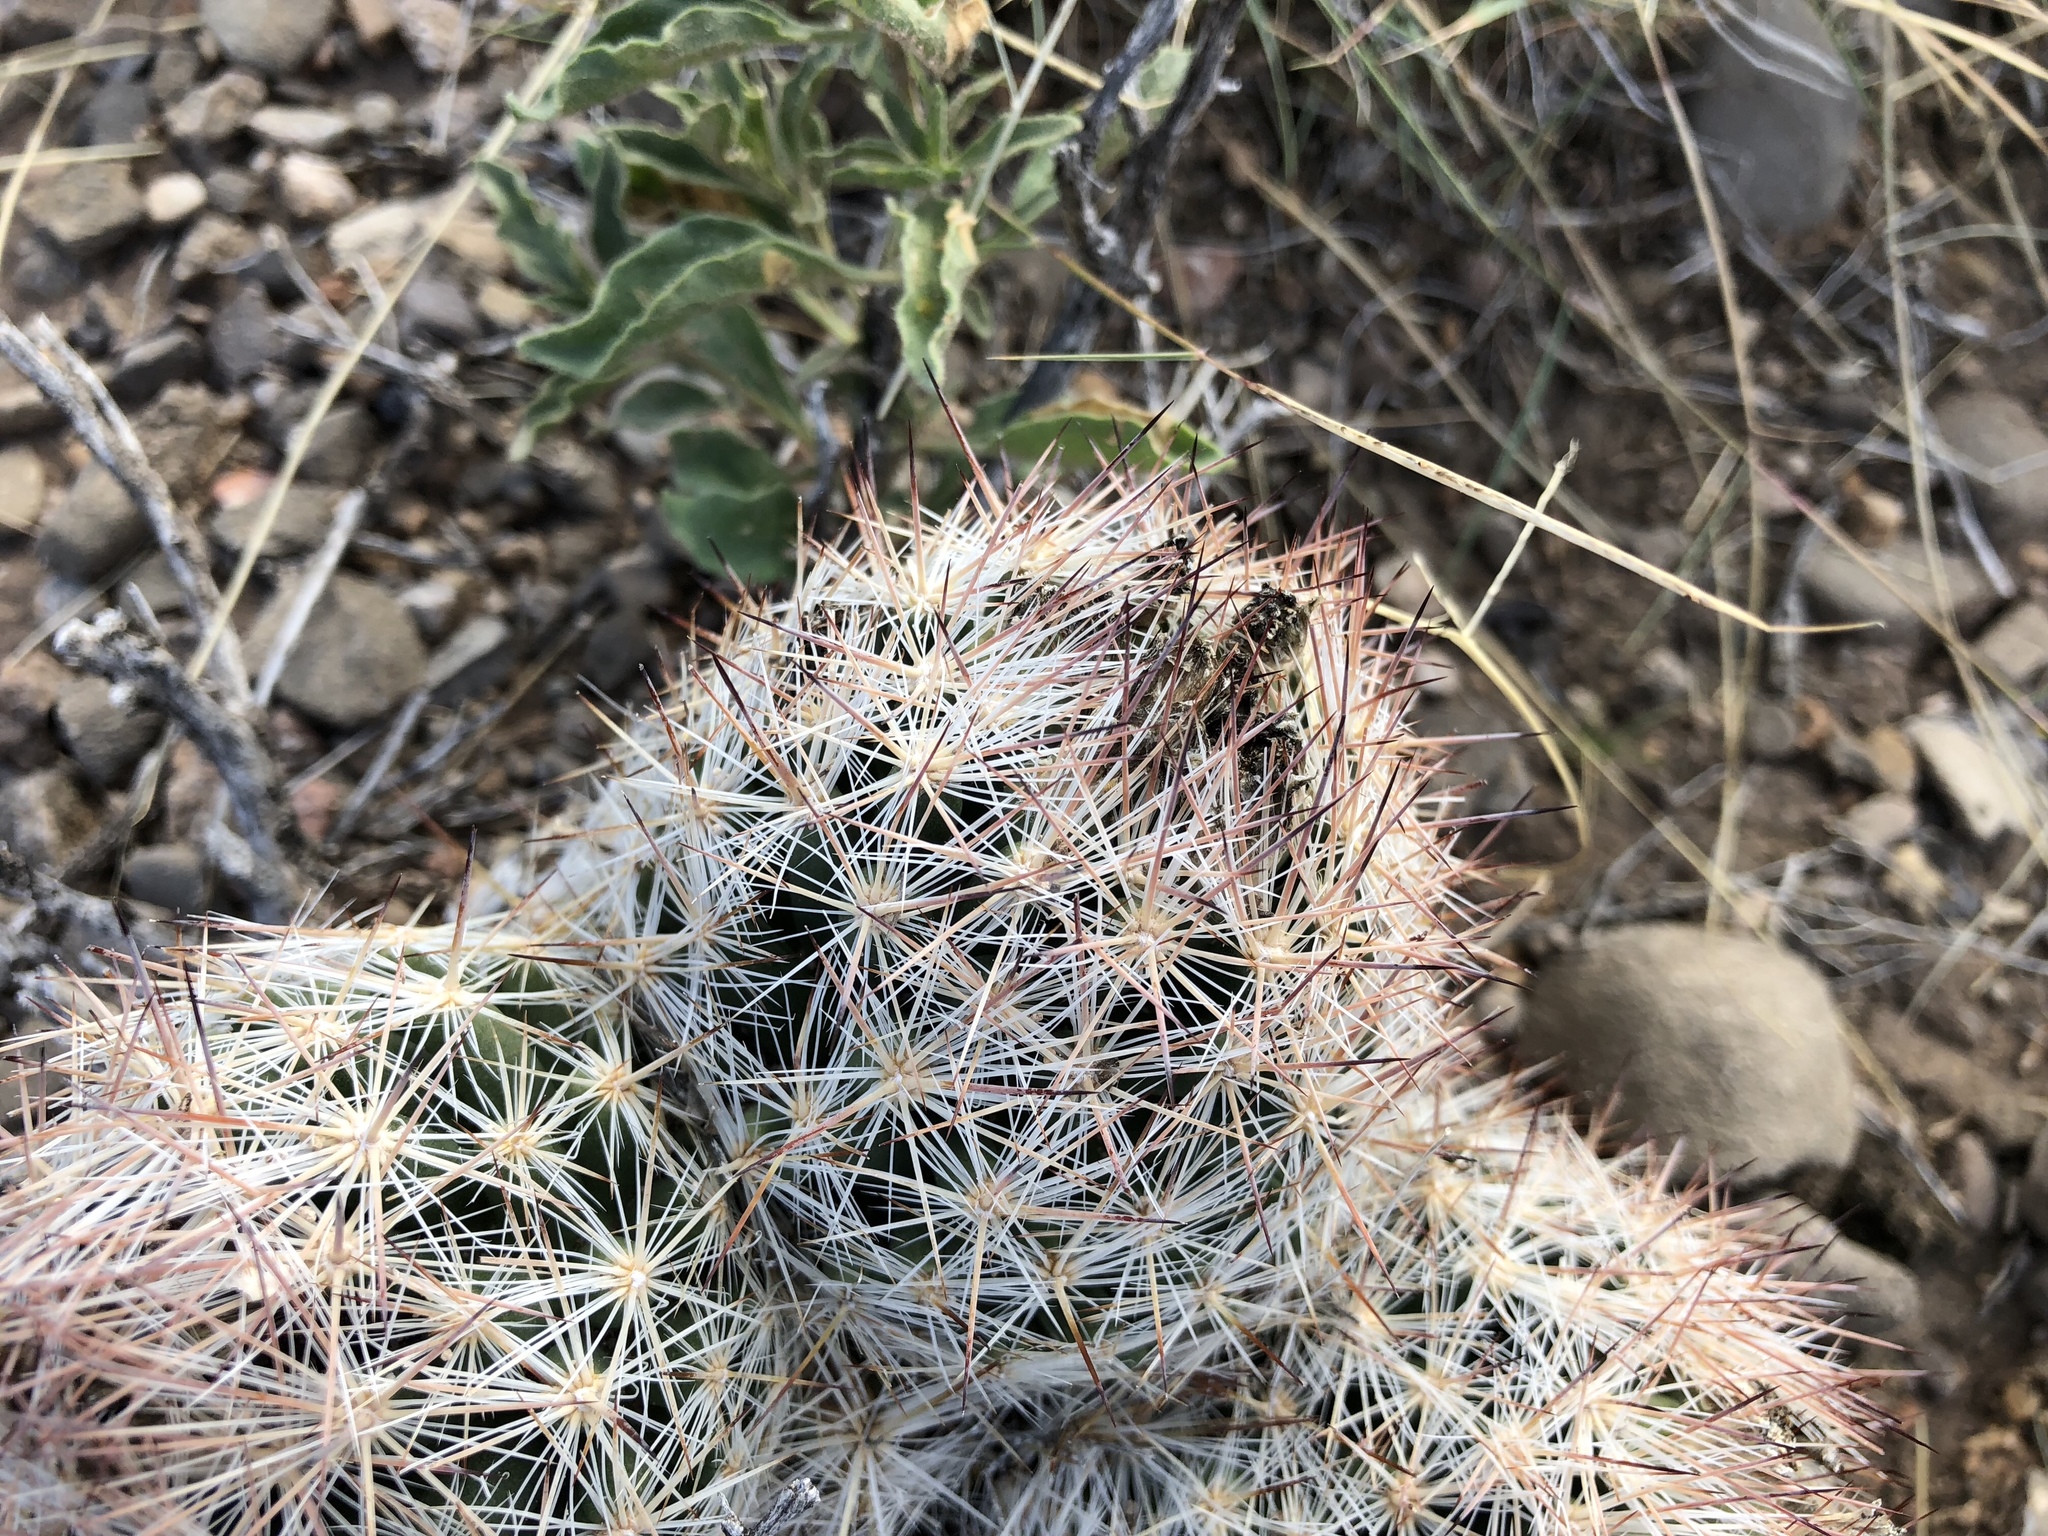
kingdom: Plantae
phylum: Tracheophyta
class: Magnoliopsida
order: Caryophyllales
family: Cactaceae
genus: Pelecyphora
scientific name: Pelecyphora vivipara
